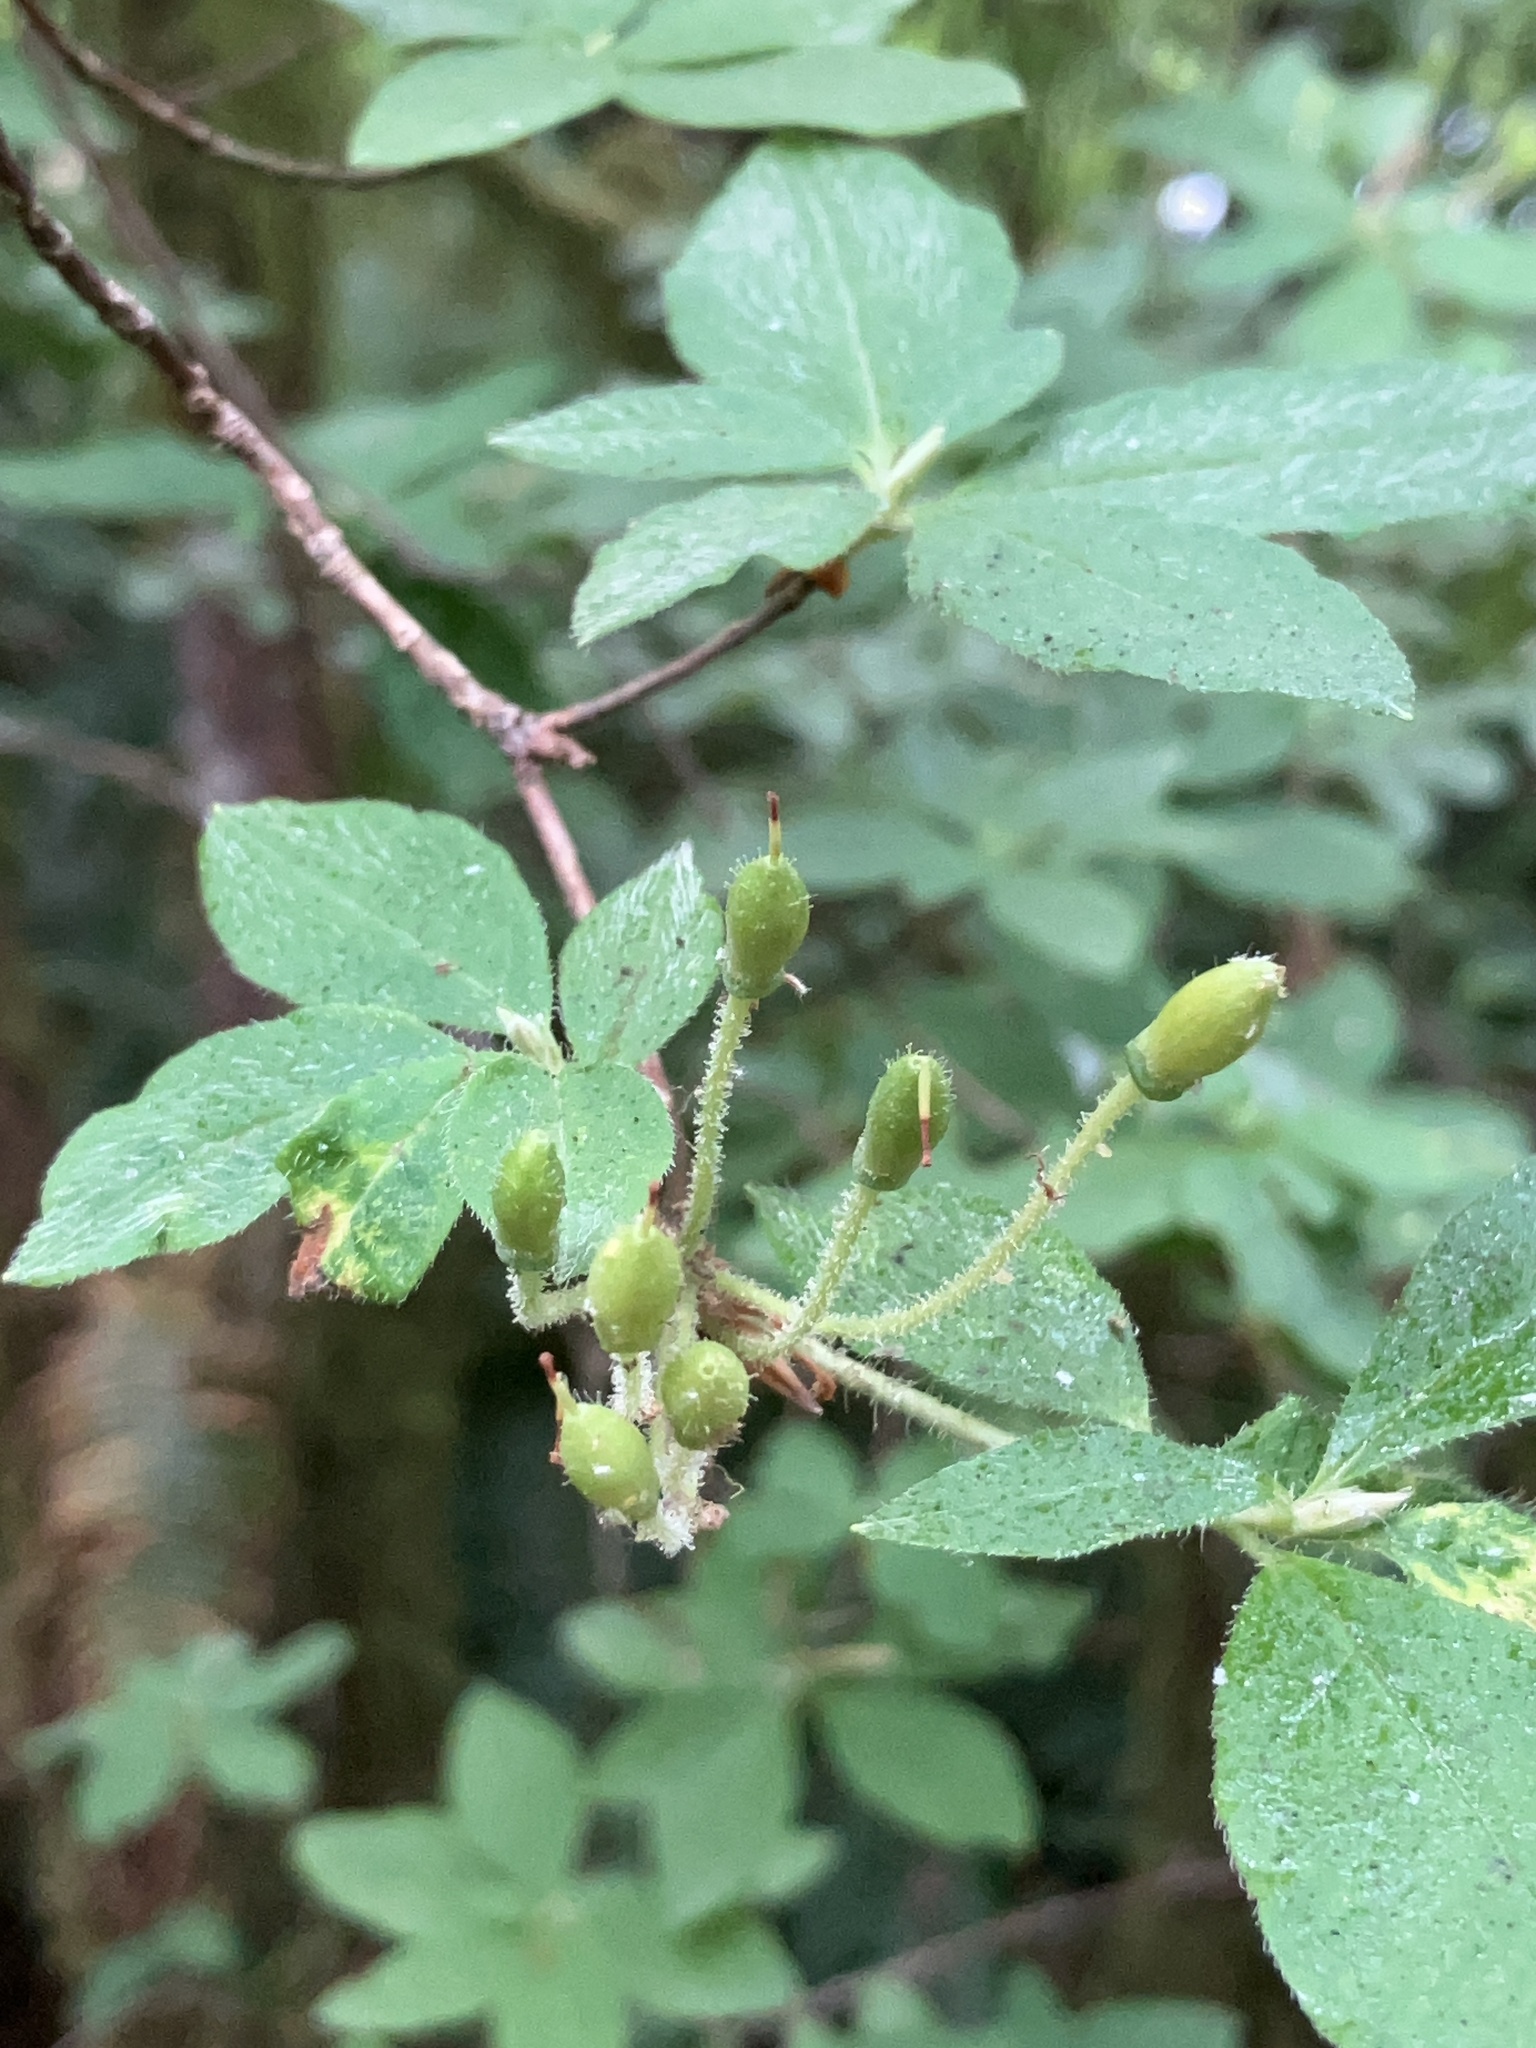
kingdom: Plantae
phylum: Tracheophyta
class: Magnoliopsida
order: Ericales
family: Ericaceae
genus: Rhododendron
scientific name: Rhododendron menziesii
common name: Pacific menziesia
